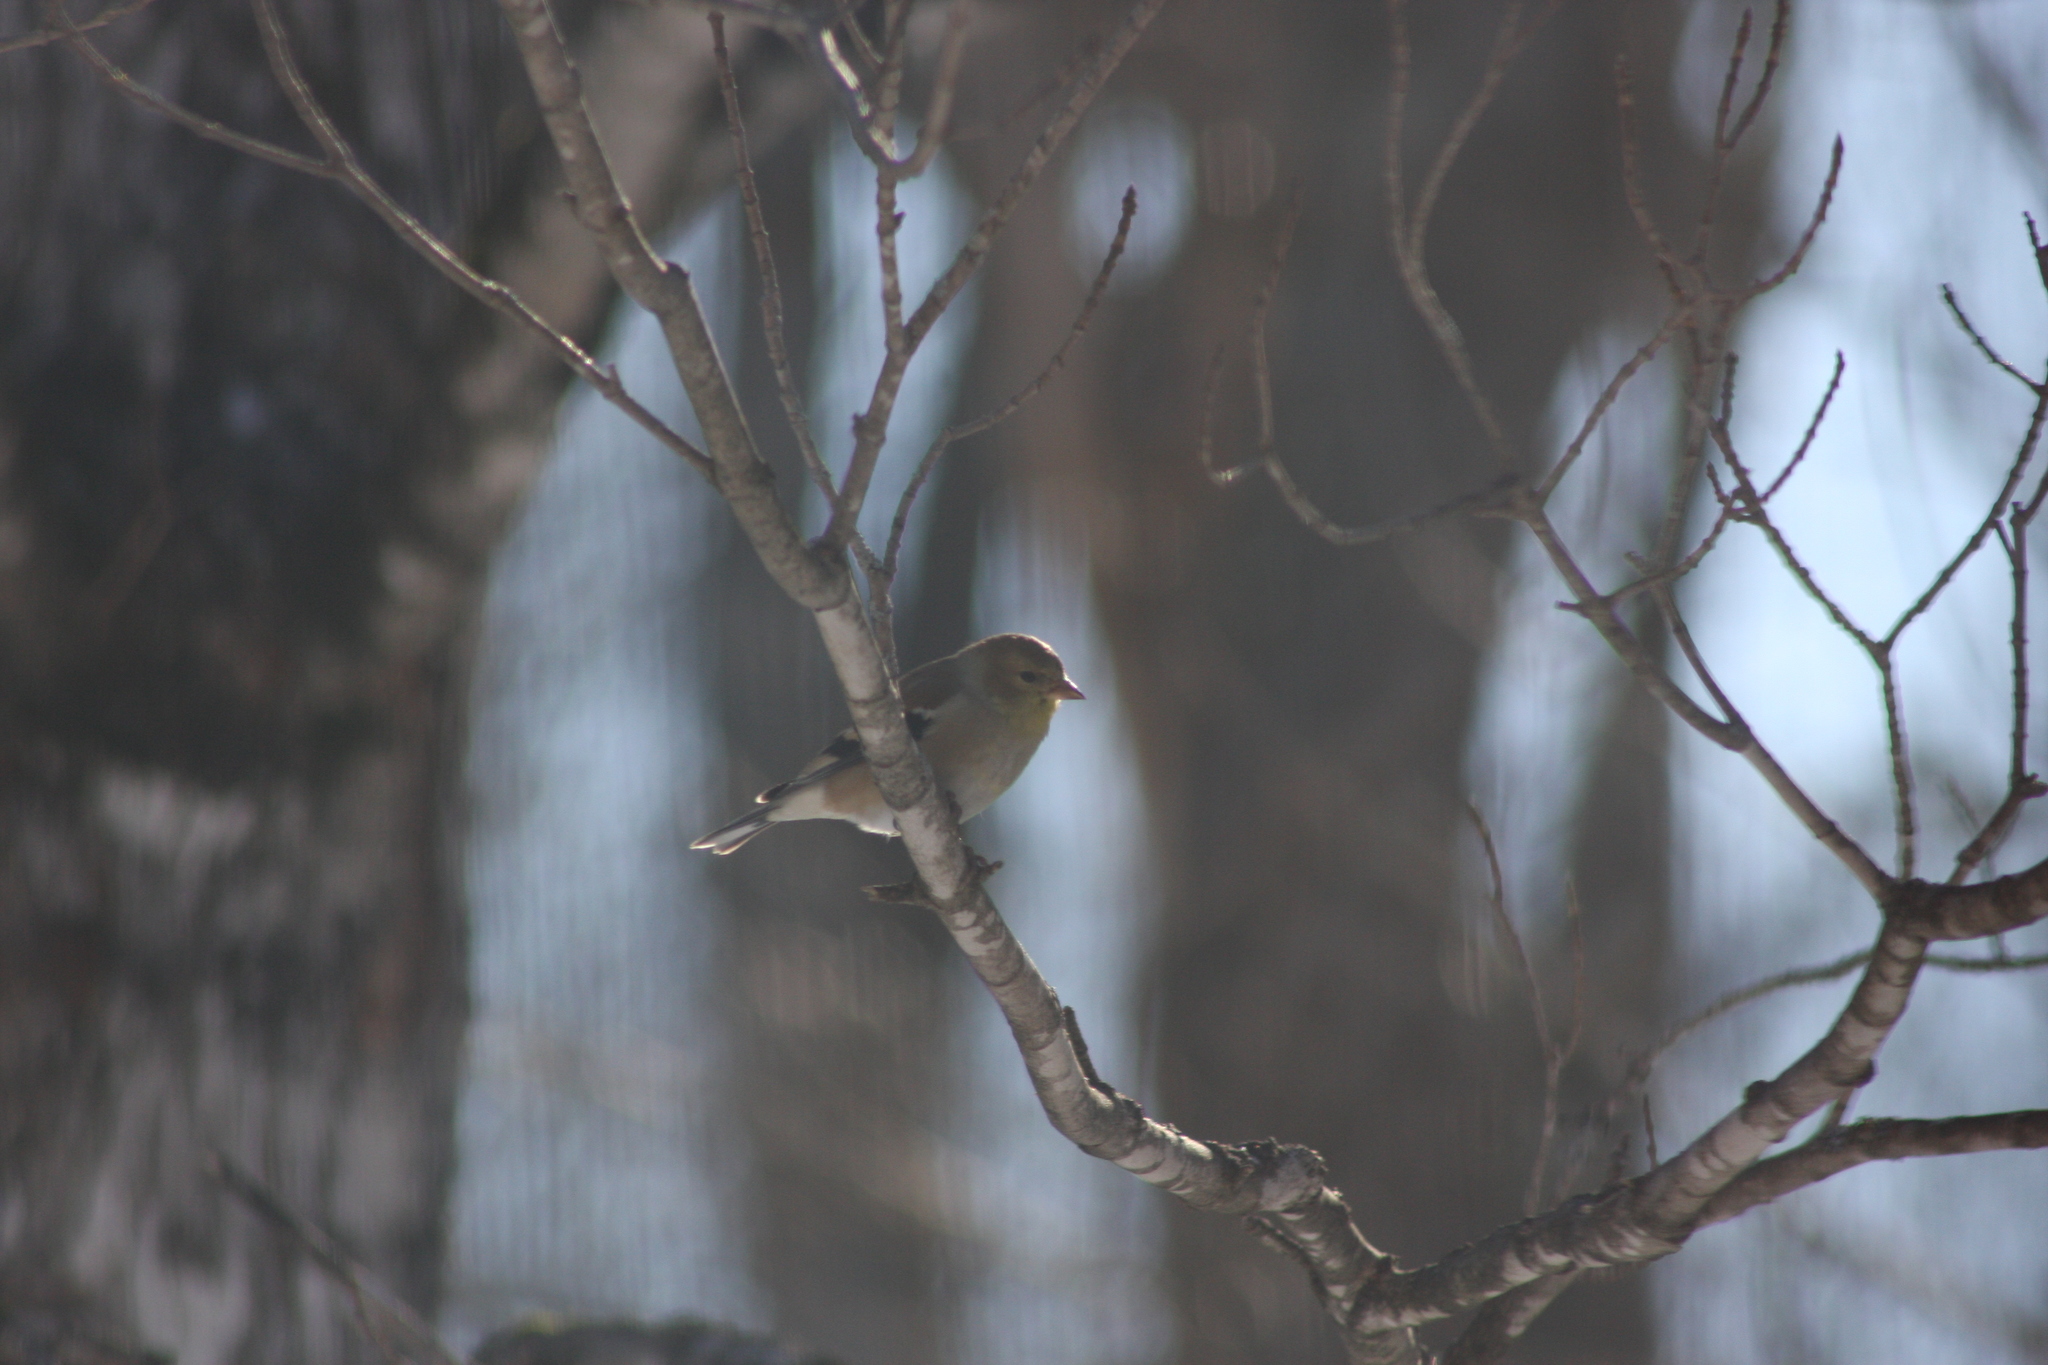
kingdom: Animalia
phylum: Chordata
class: Aves
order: Passeriformes
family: Fringillidae
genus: Spinus
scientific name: Spinus tristis
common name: American goldfinch
